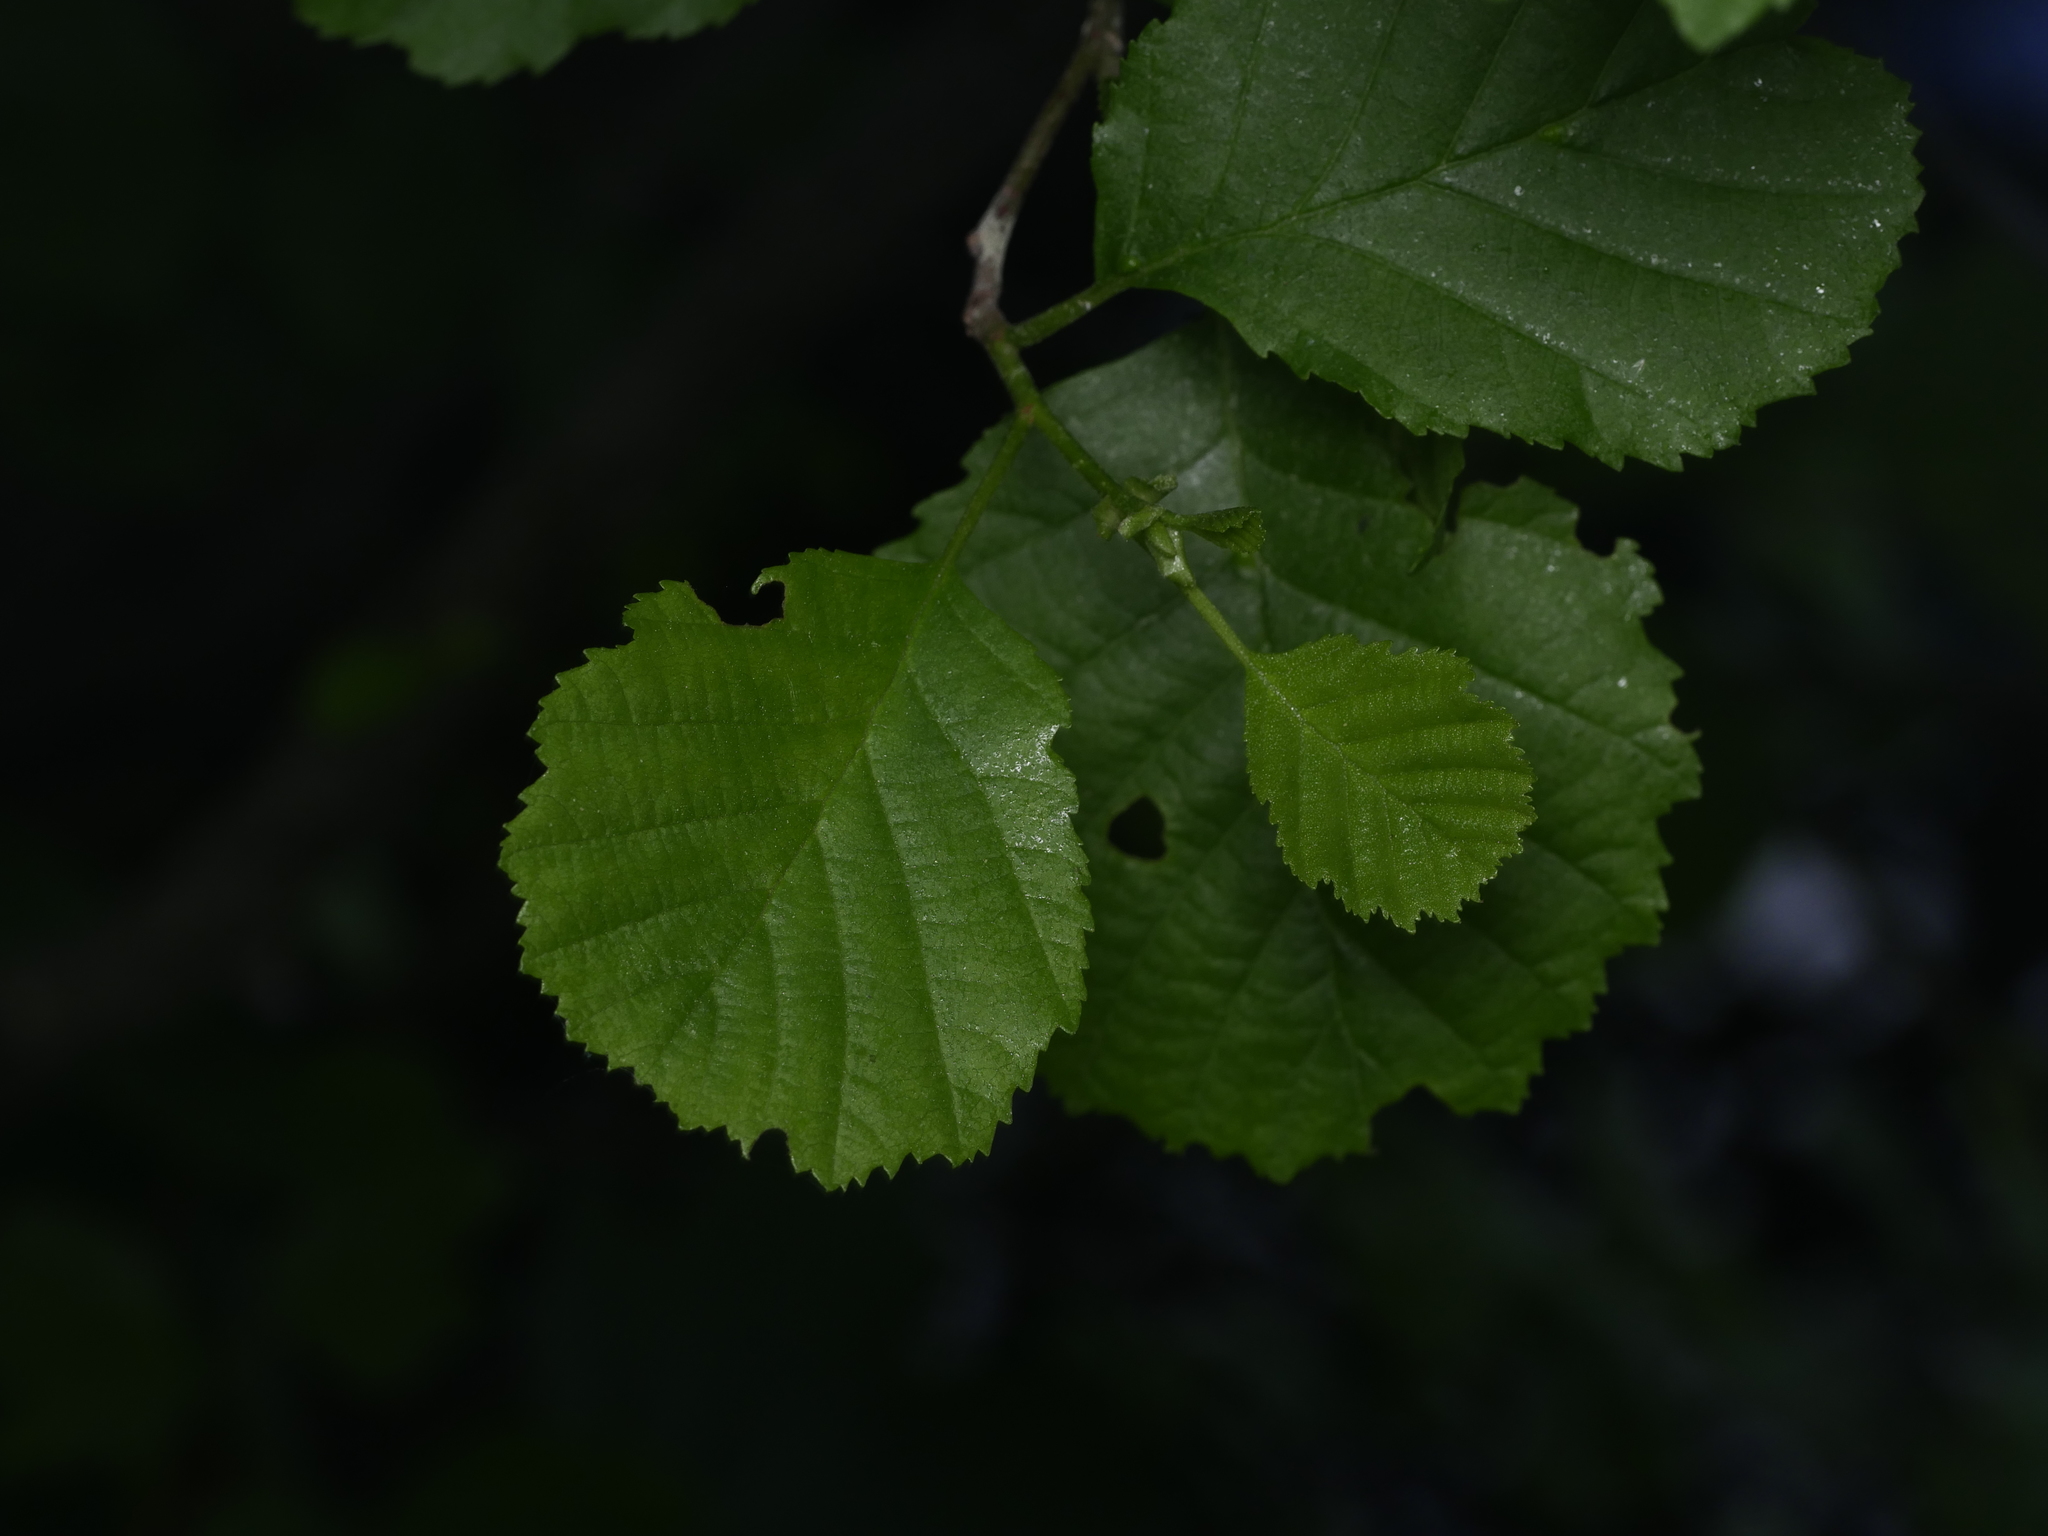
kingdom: Plantae
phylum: Tracheophyta
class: Magnoliopsida
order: Fagales
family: Betulaceae
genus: Alnus
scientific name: Alnus glutinosa
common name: Black alder
